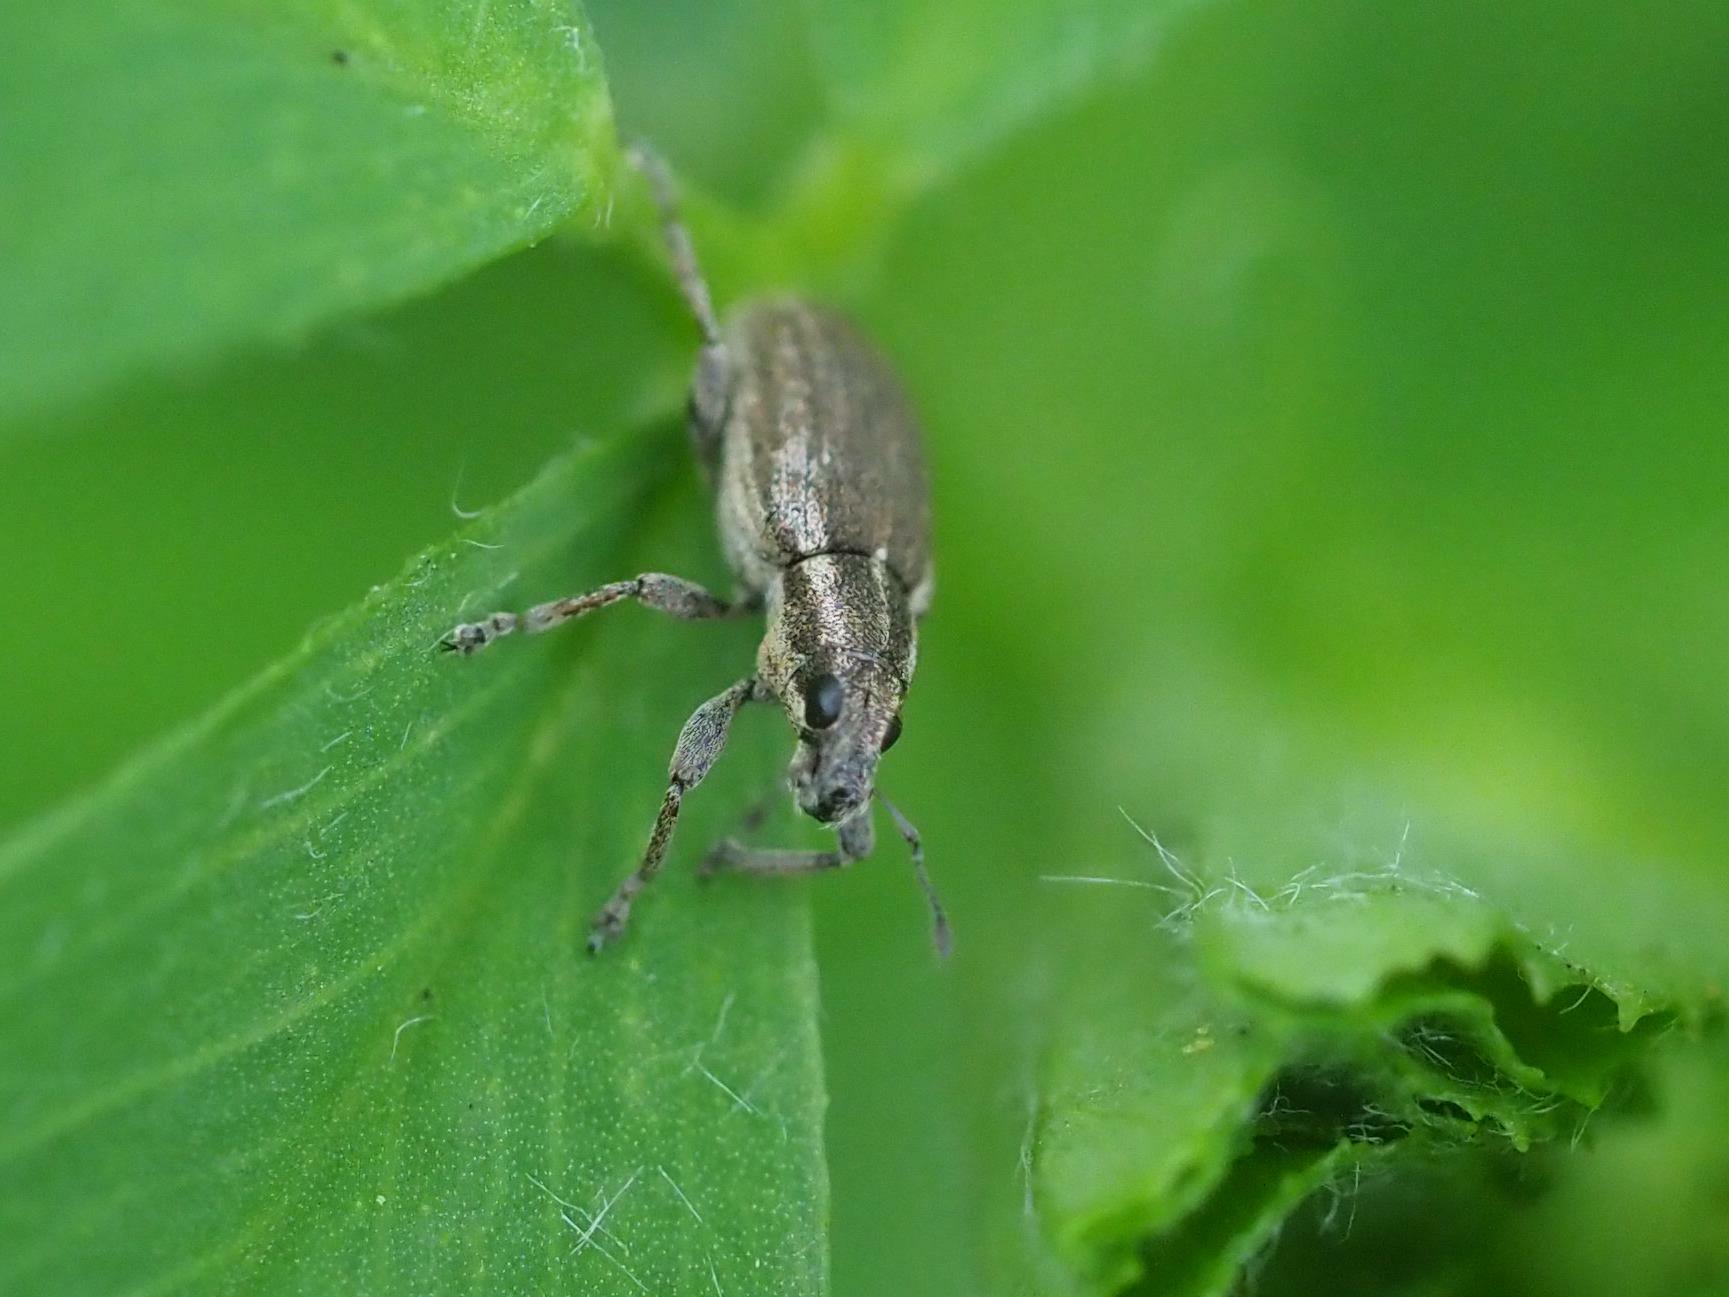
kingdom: Animalia
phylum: Arthropoda
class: Insecta
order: Coleoptera
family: Curculionidae
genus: Sitona
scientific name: Sitona humeralis
